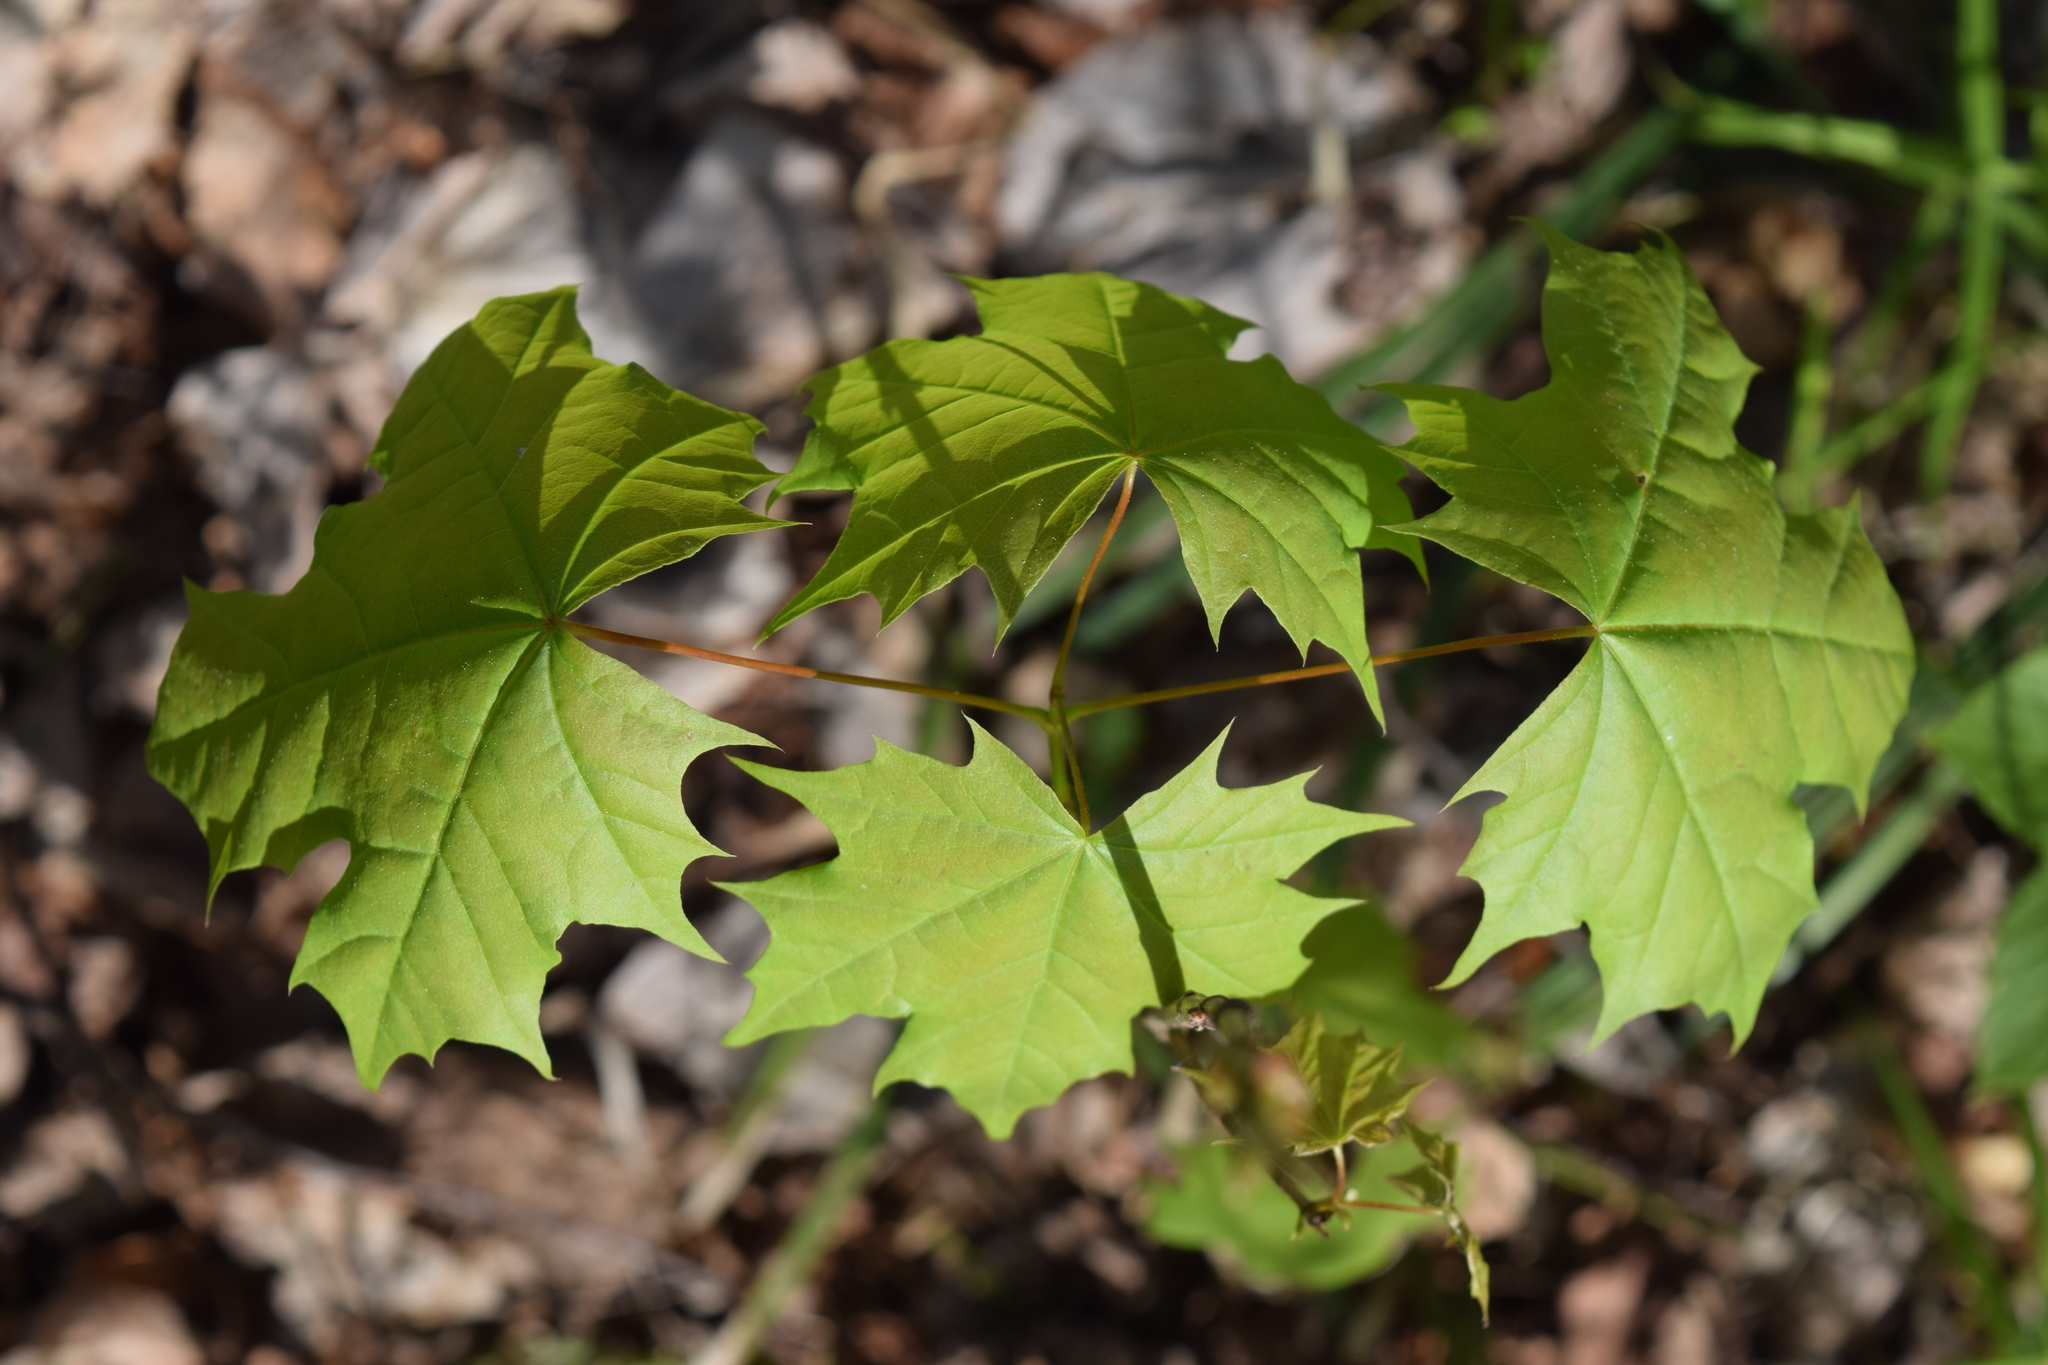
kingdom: Plantae
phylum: Tracheophyta
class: Magnoliopsida
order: Sapindales
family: Sapindaceae
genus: Acer
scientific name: Acer platanoides
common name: Norway maple
